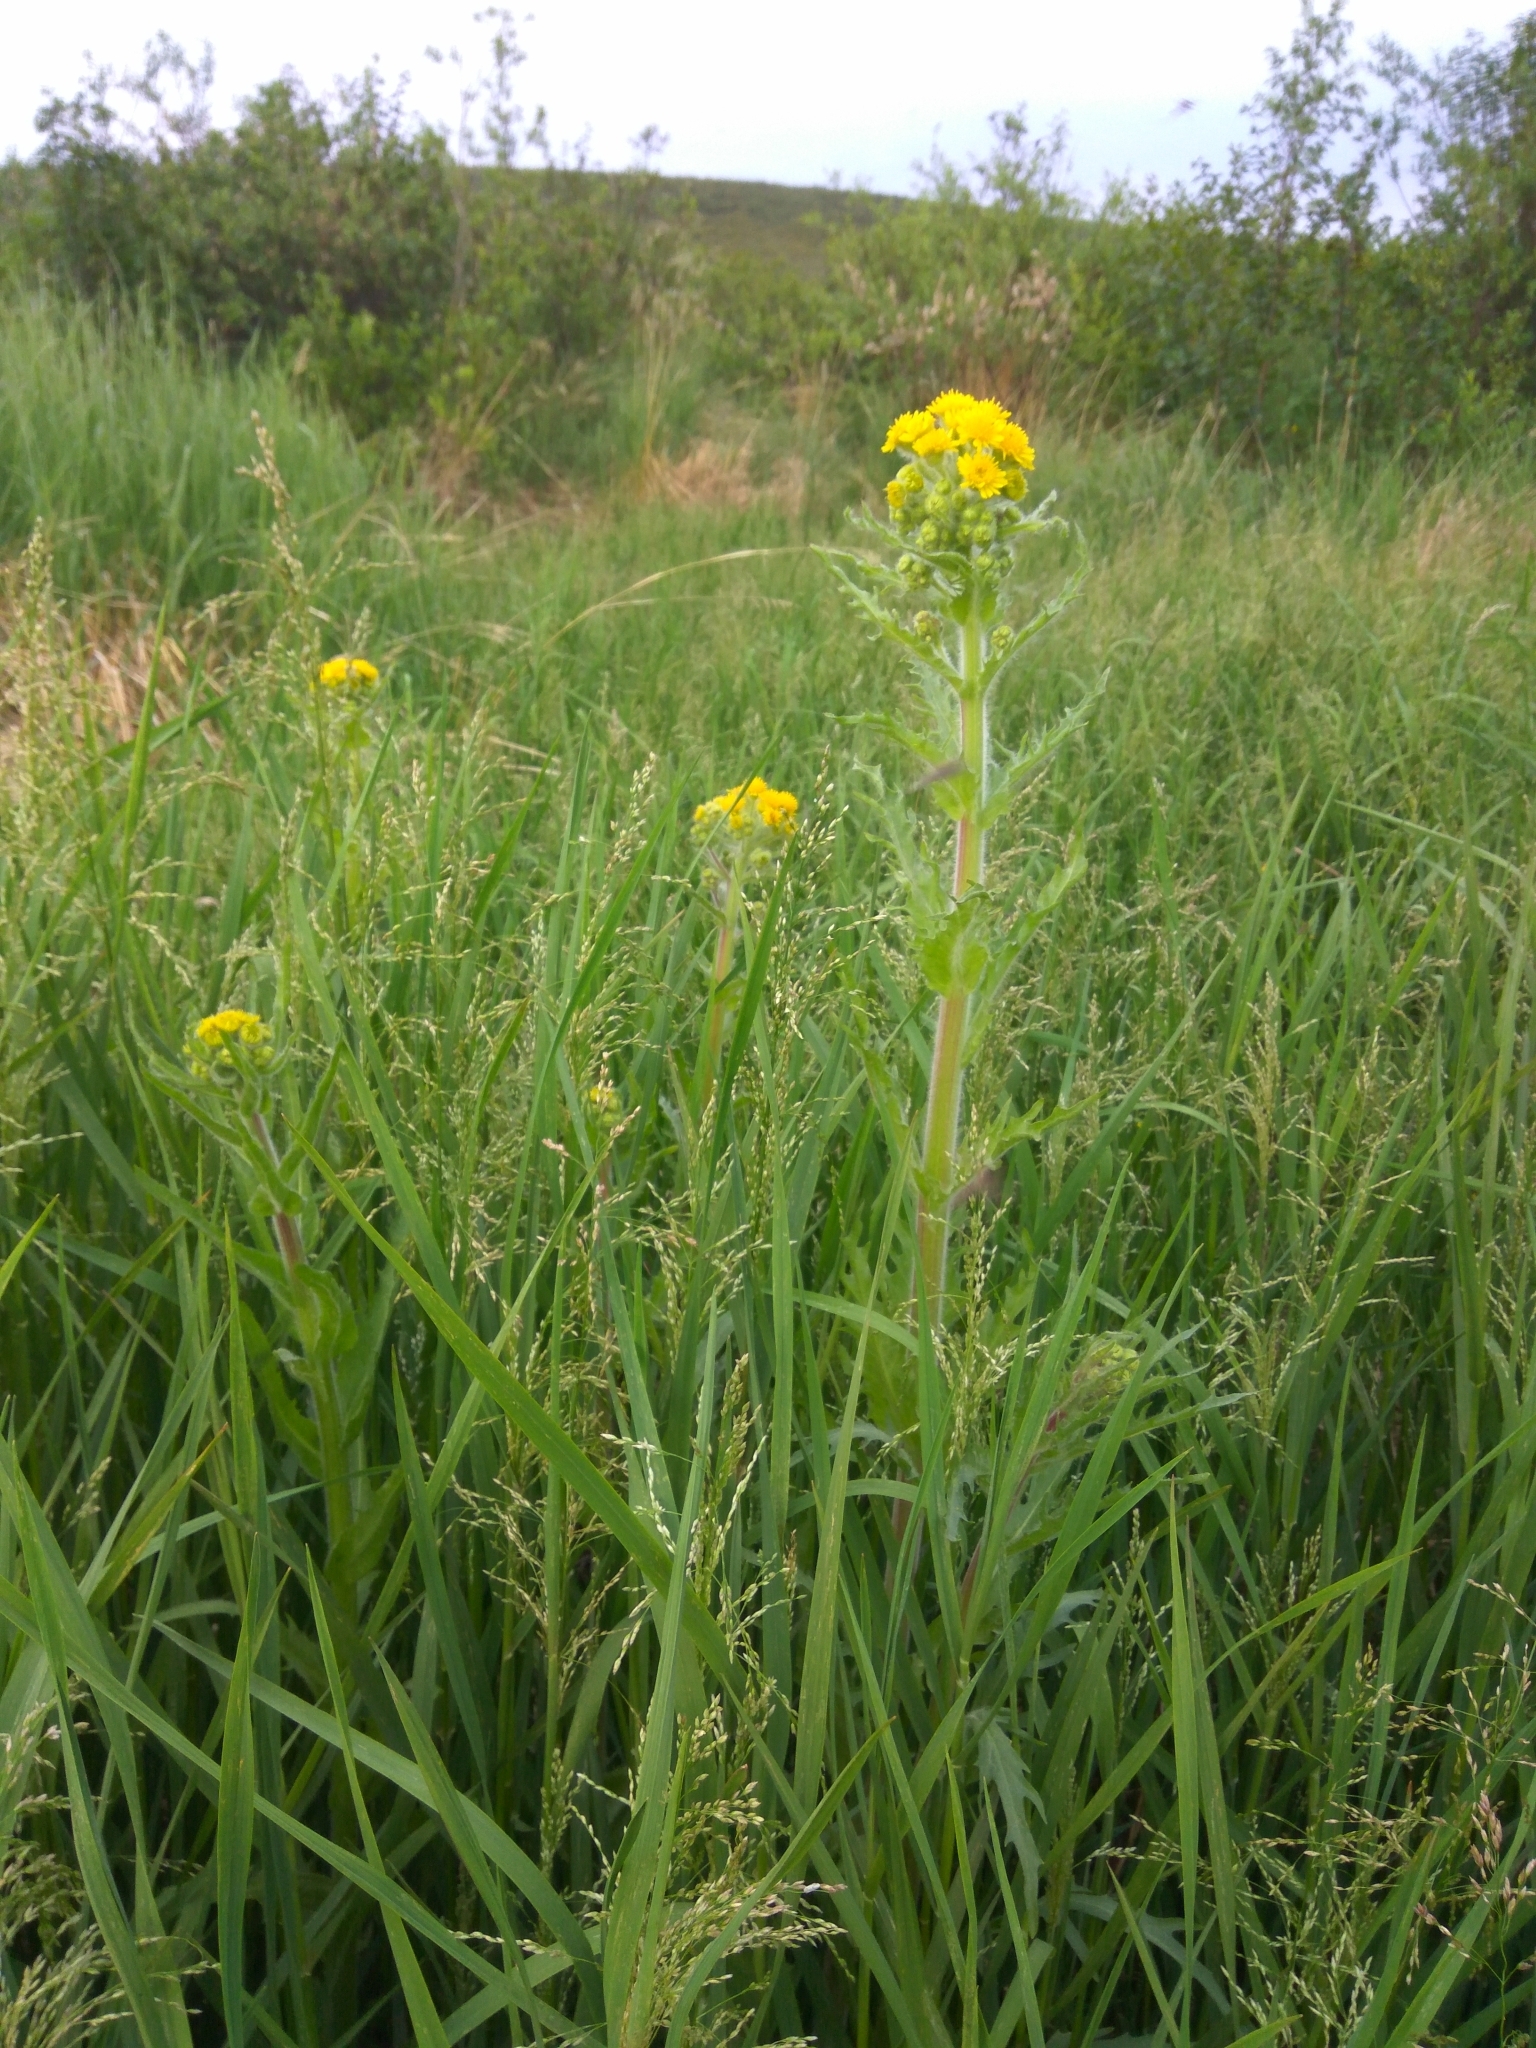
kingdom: Plantae
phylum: Tracheophyta
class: Magnoliopsida
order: Asterales
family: Asteraceae
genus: Tephroseris
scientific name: Tephroseris palustris
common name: Marsh fleawort
